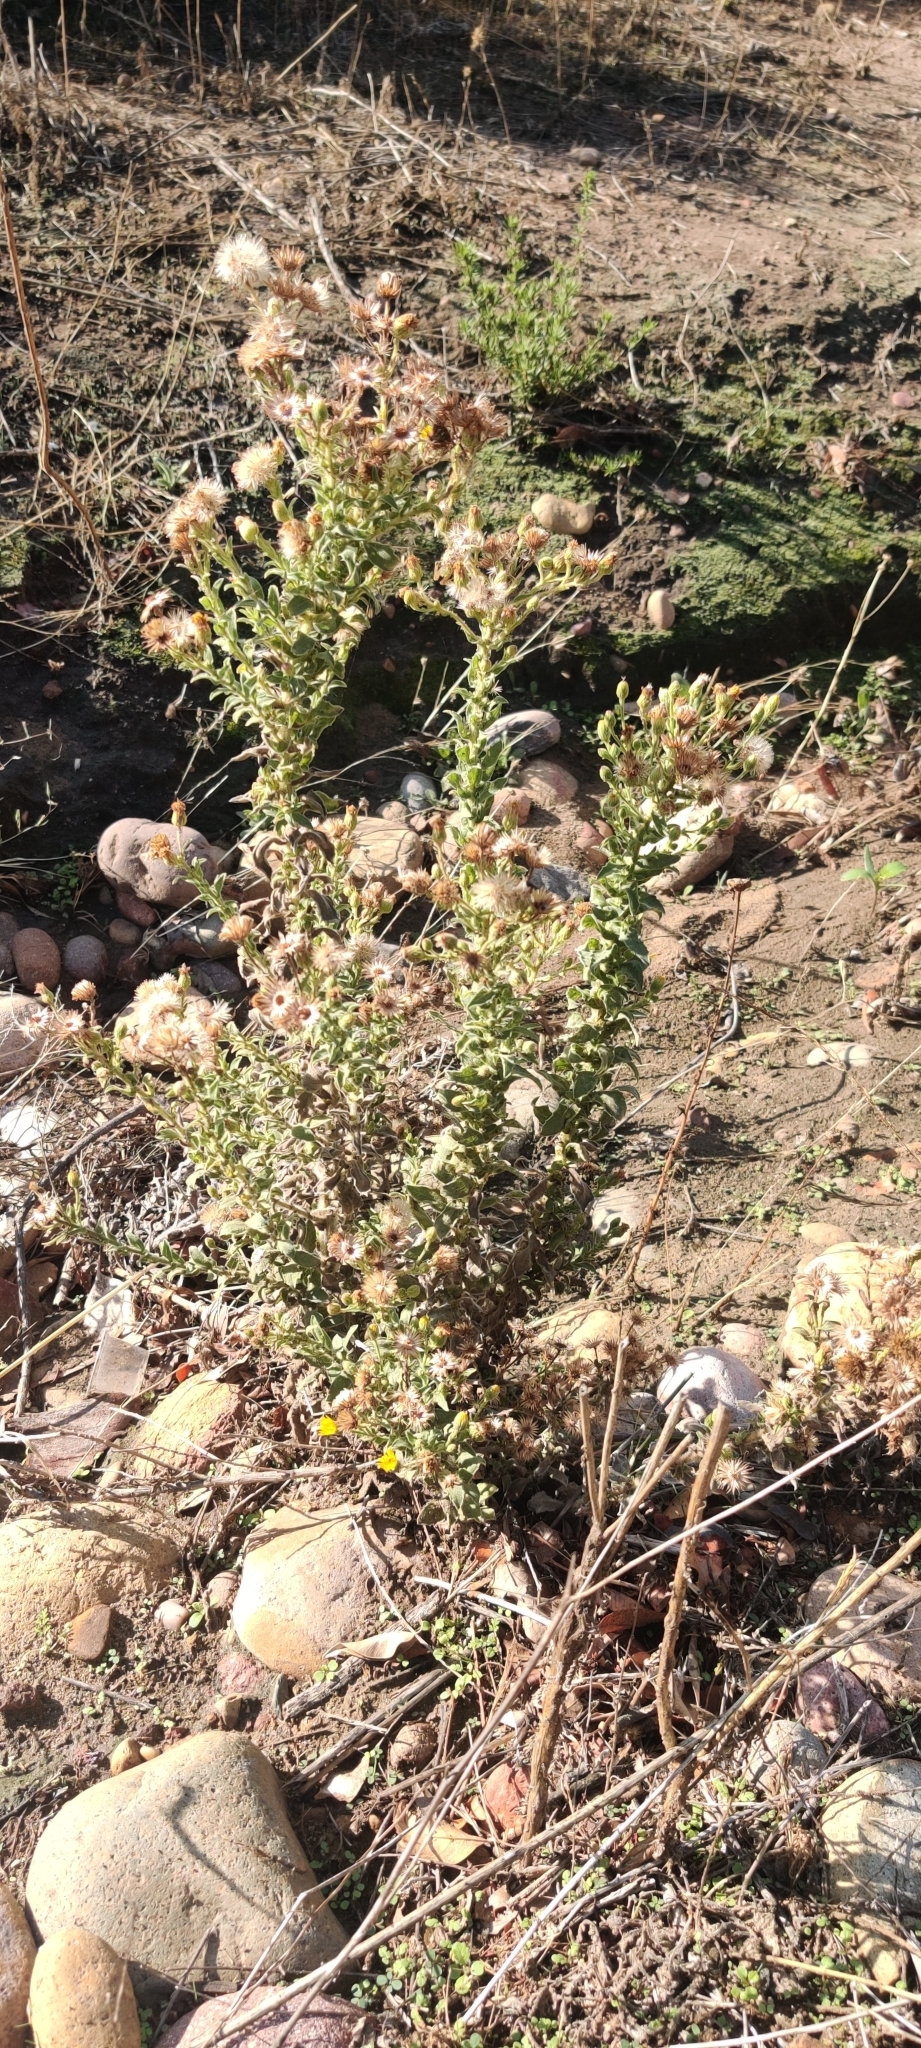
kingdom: Plantae
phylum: Tracheophyta
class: Magnoliopsida
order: Asterales
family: Asteraceae
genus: Heterotheca
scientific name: Heterotheca grandiflora
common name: Telegraphweed
